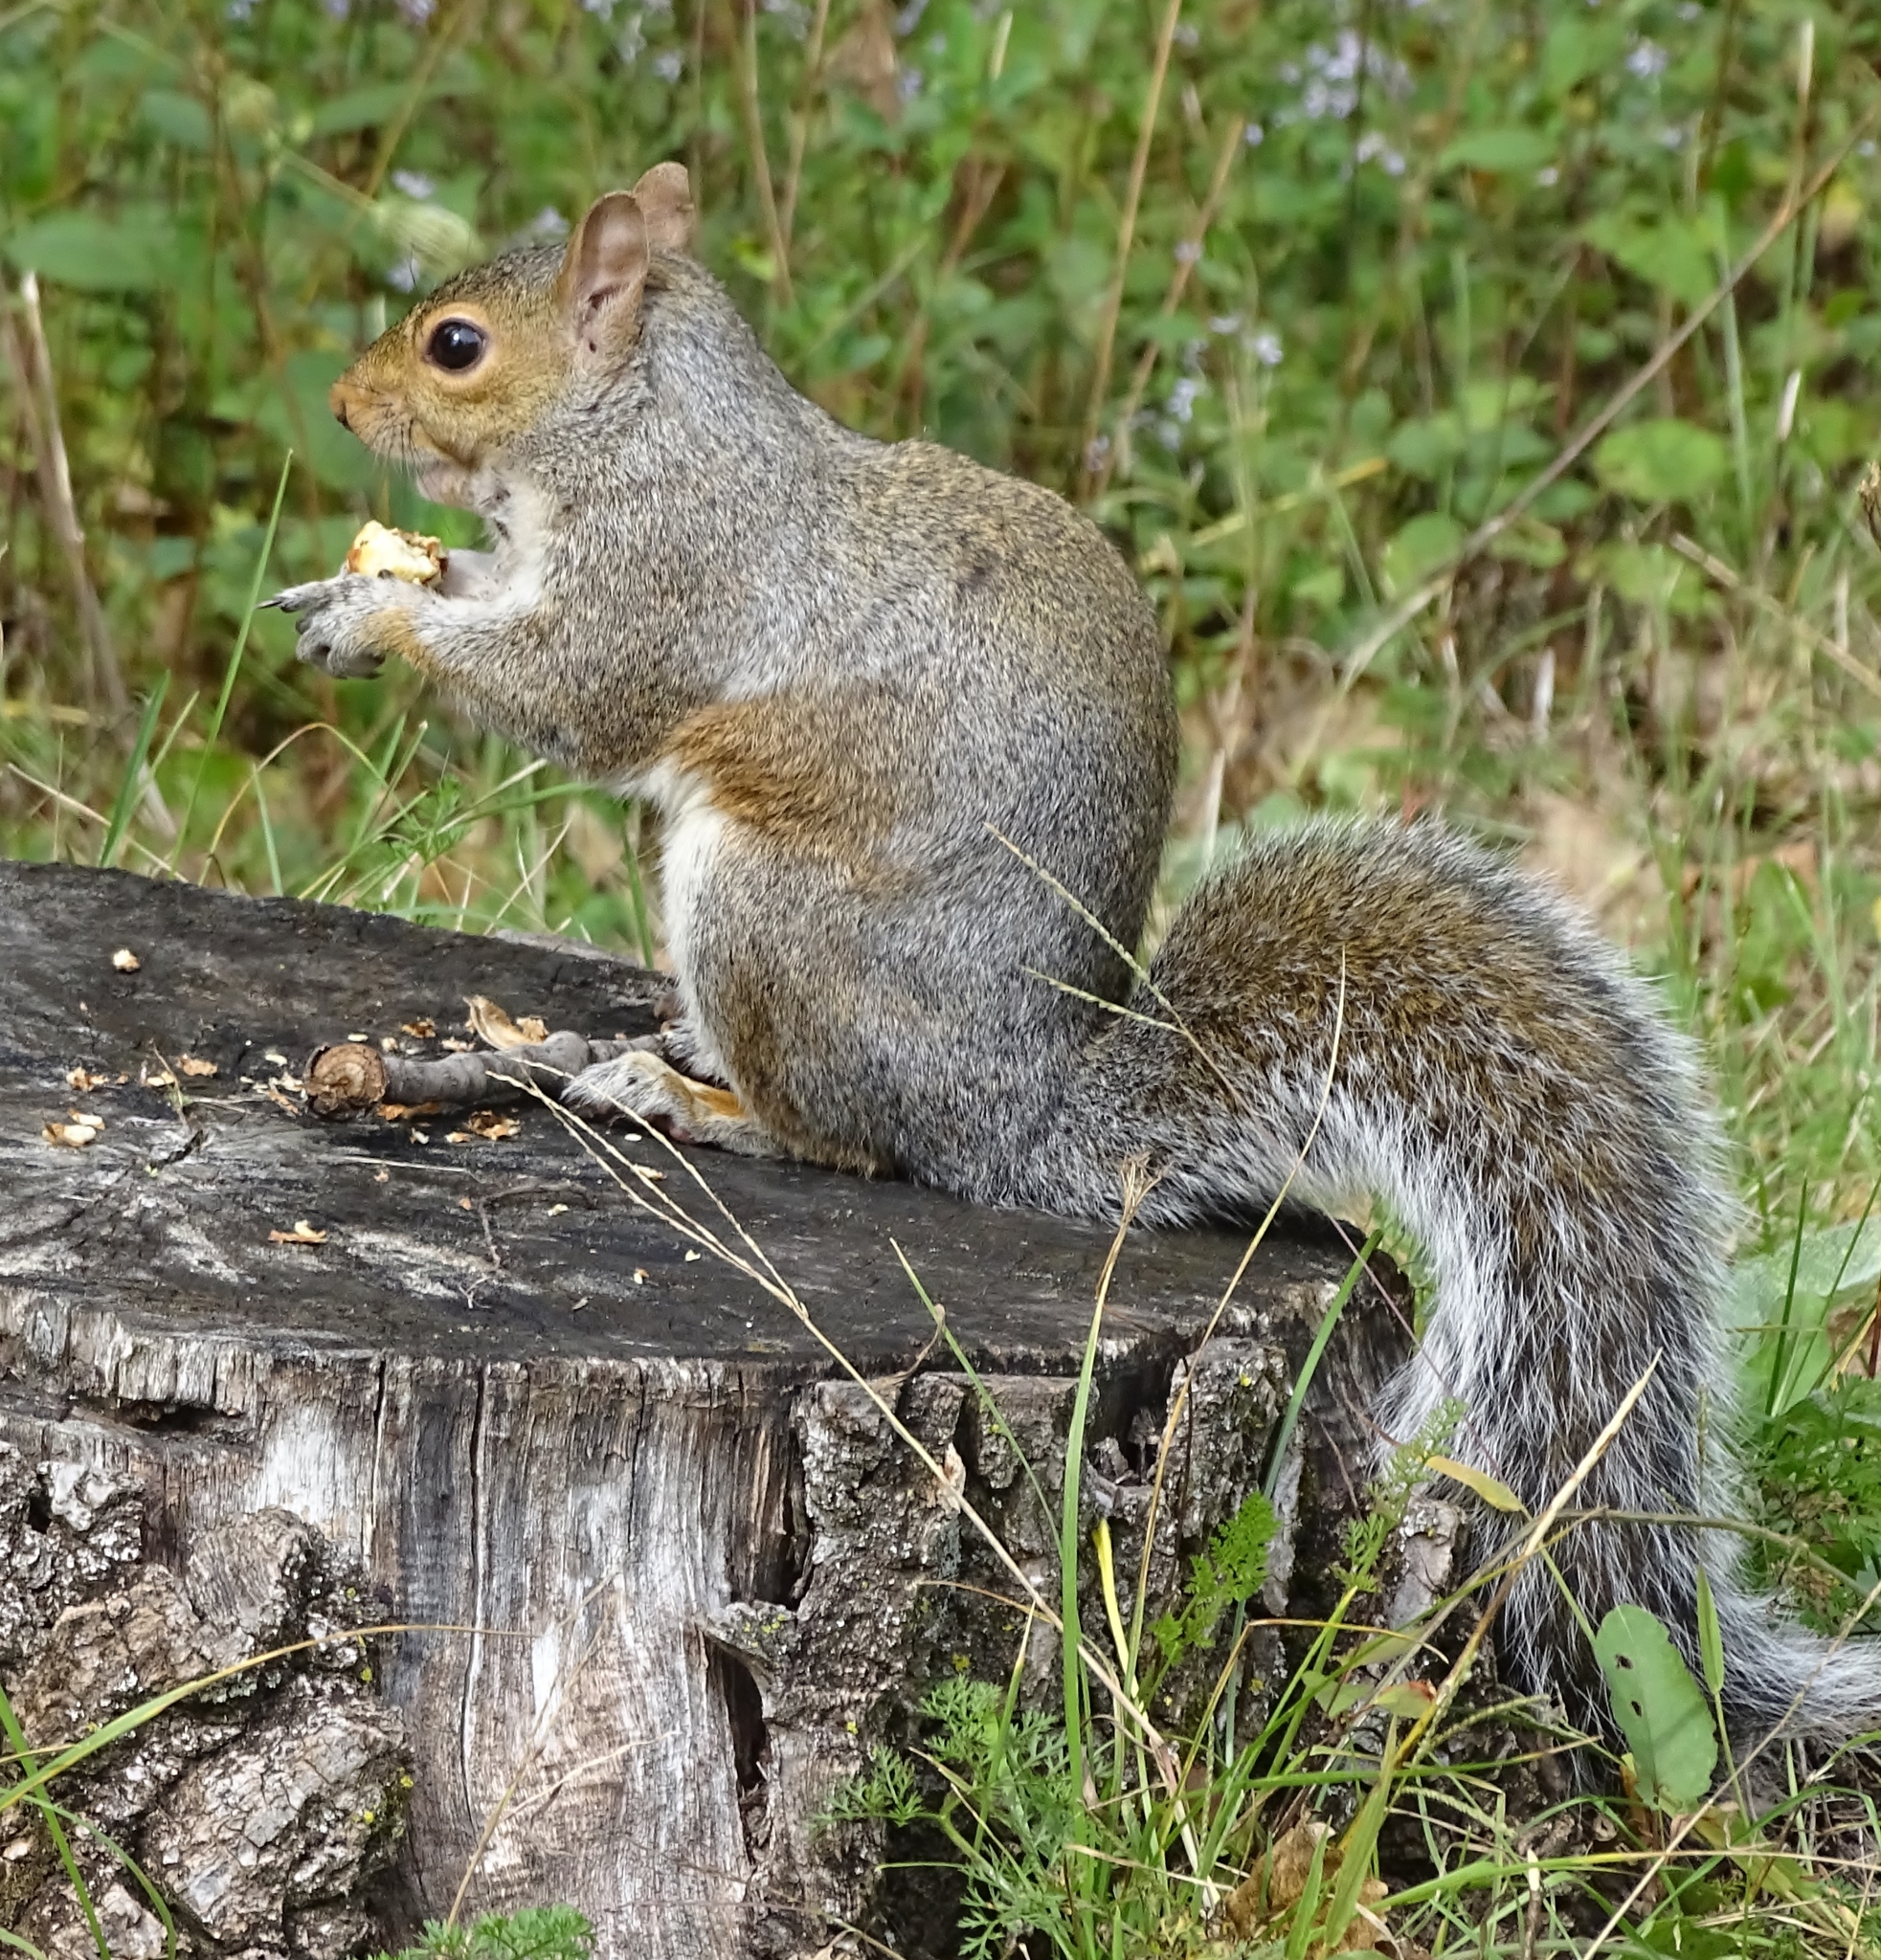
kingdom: Animalia
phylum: Chordata
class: Mammalia
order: Rodentia
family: Sciuridae
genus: Sciurus
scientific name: Sciurus carolinensis
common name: Eastern gray squirrel
